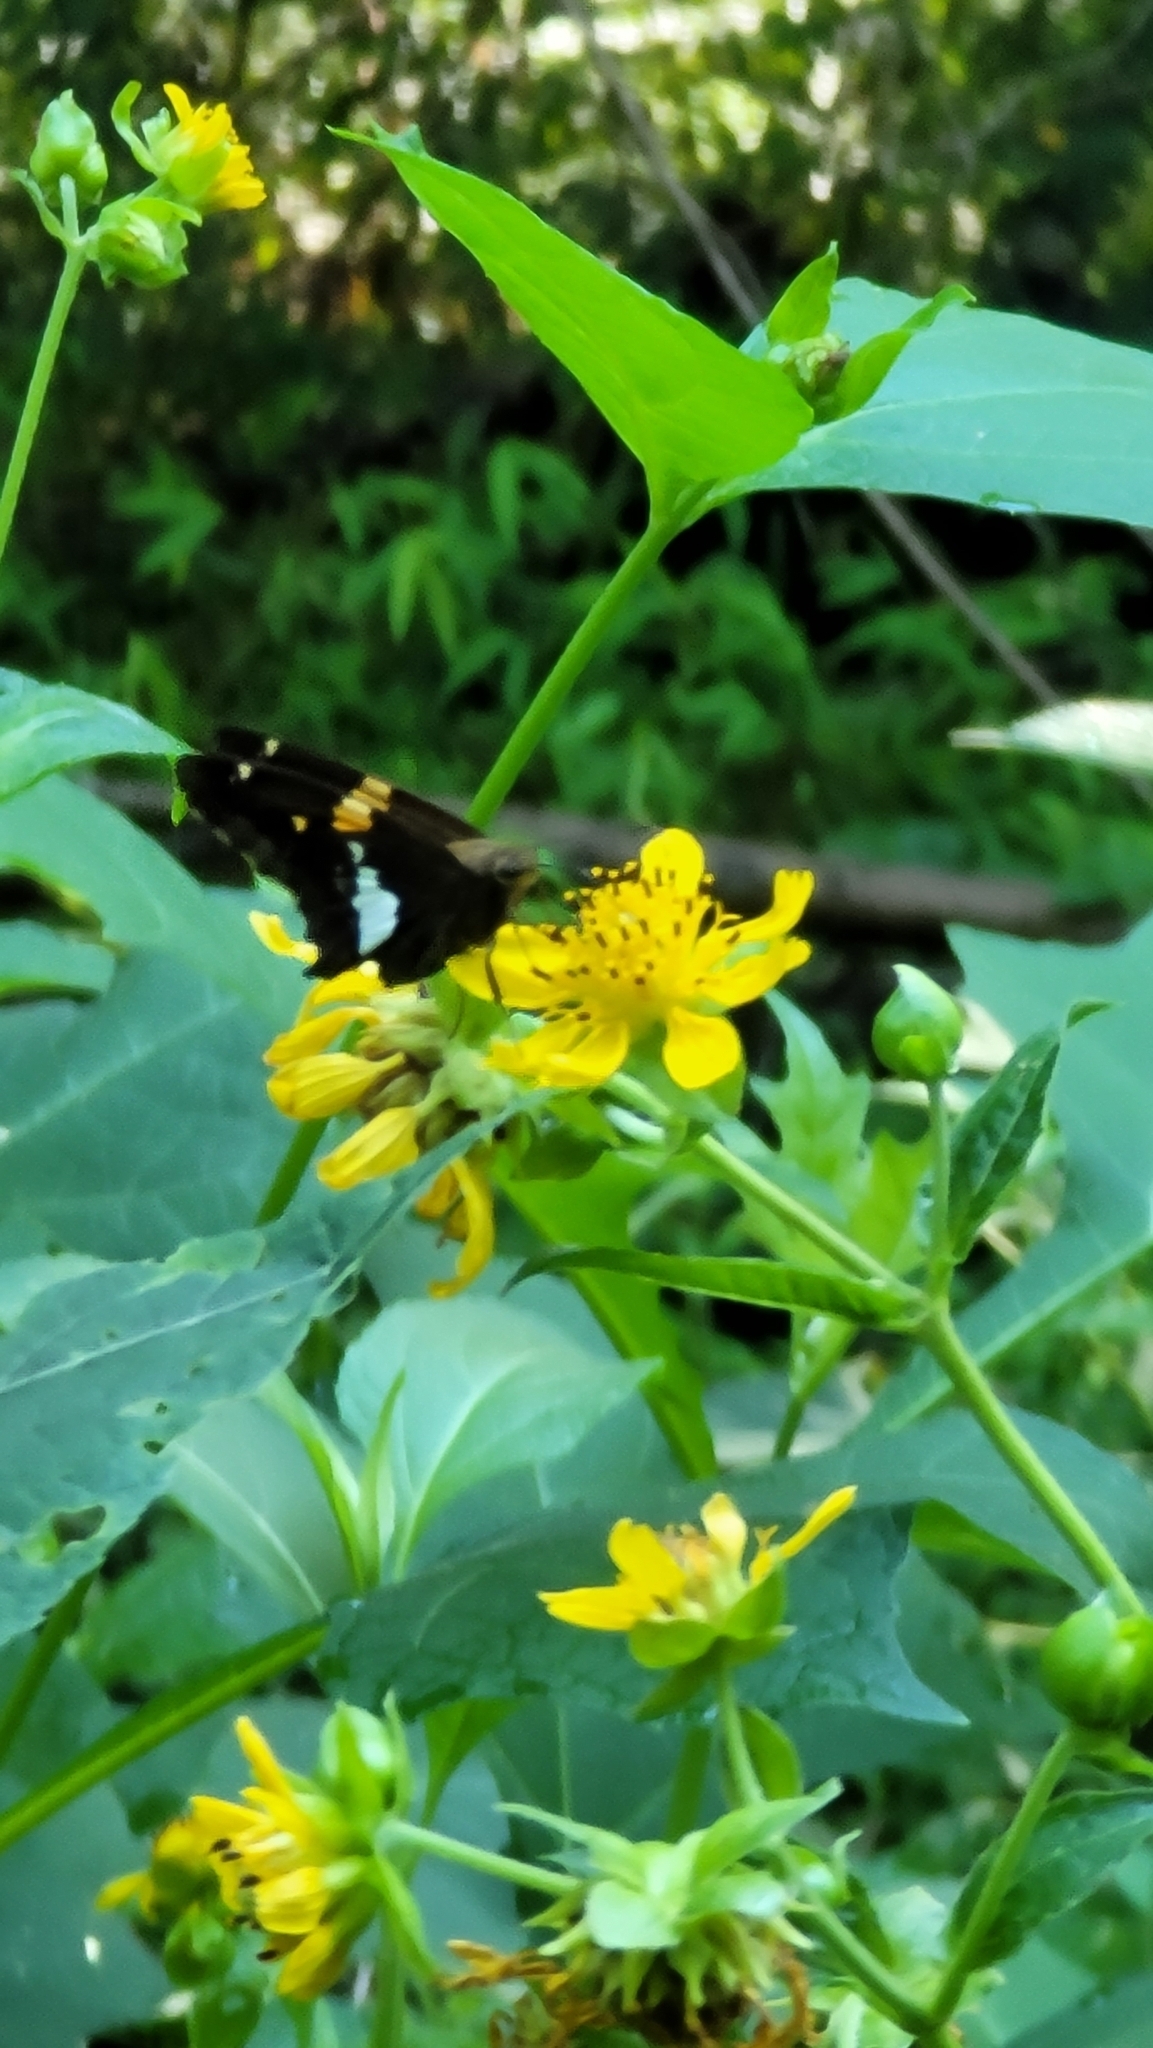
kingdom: Animalia
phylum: Arthropoda
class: Insecta
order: Lepidoptera
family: Hesperiidae
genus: Epargyreus
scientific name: Epargyreus clarus
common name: Silver-spotted skipper
